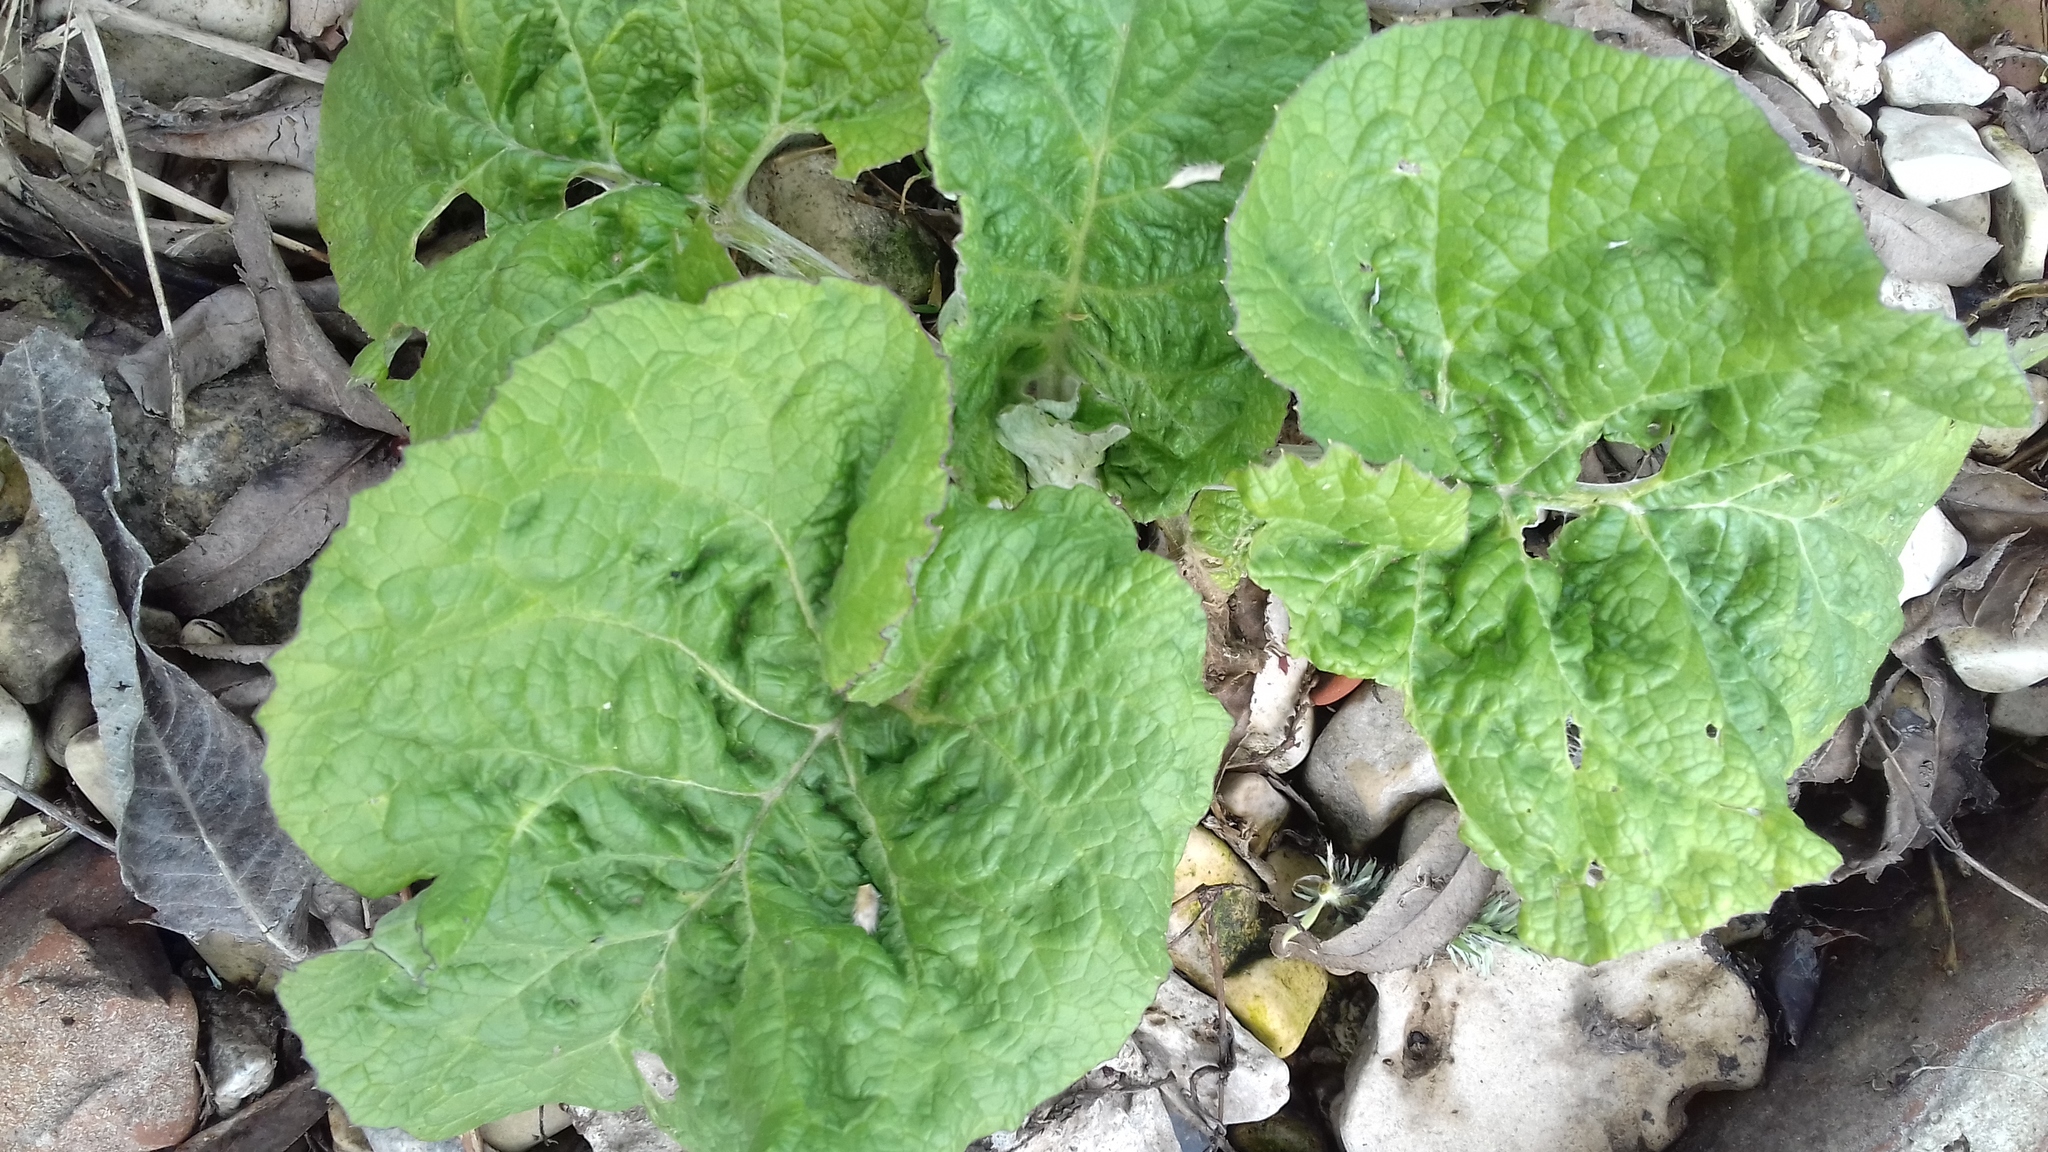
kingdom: Plantae
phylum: Tracheophyta
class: Magnoliopsida
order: Asterales
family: Asteraceae
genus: Arctium
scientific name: Arctium
